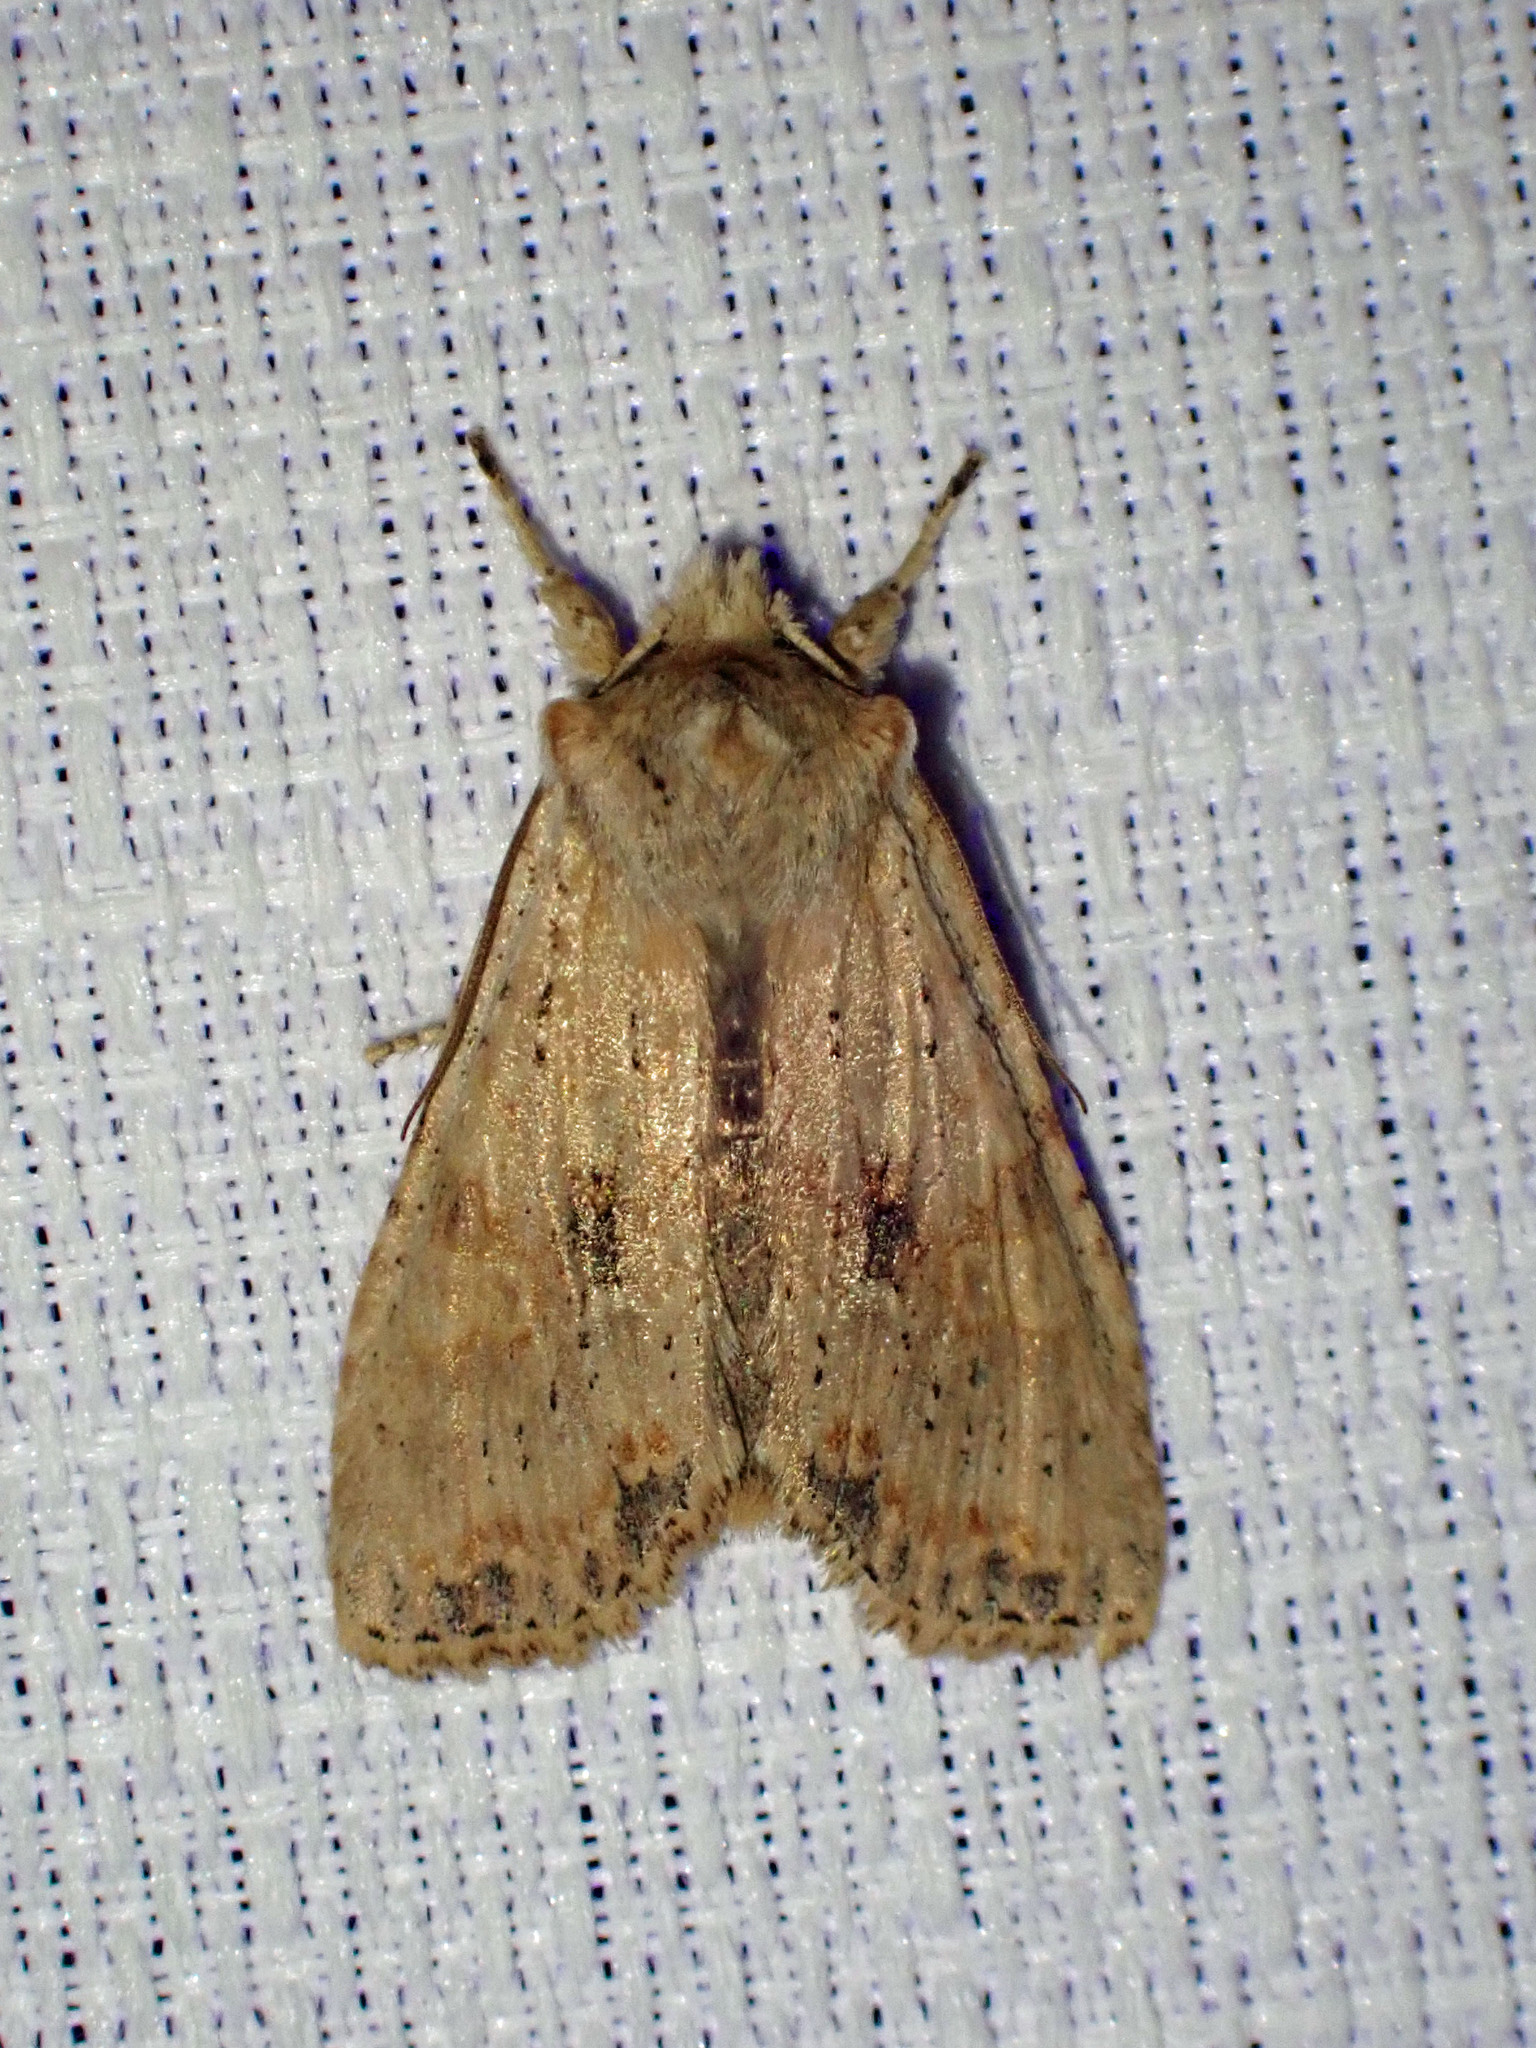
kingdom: Animalia
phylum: Arthropoda
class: Insecta
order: Lepidoptera
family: Noctuidae
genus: Lithophane
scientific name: Lithophane innominata
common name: Nameless pinion moth
